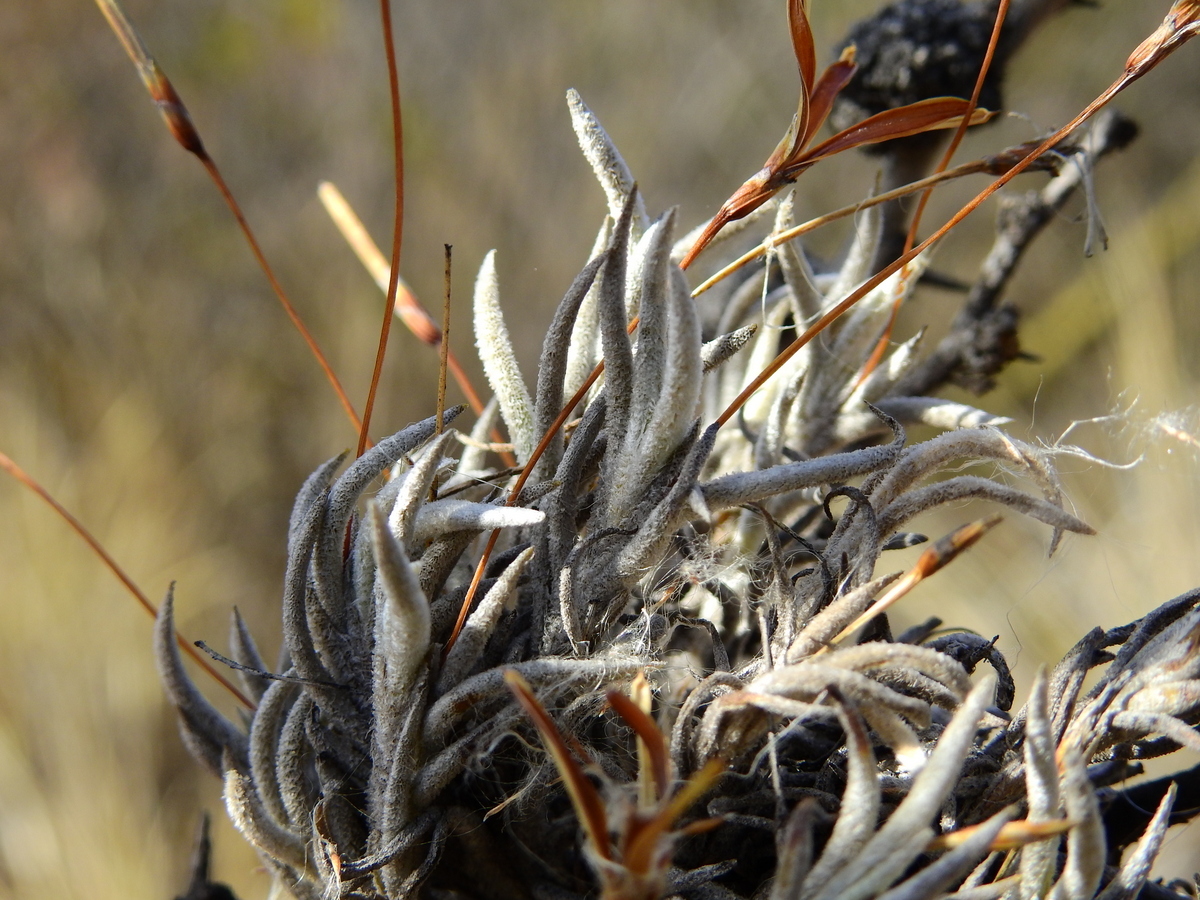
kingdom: Plantae
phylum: Tracheophyta
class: Liliopsida
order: Poales
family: Bromeliaceae
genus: Tillandsia
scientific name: Tillandsia capillaris
